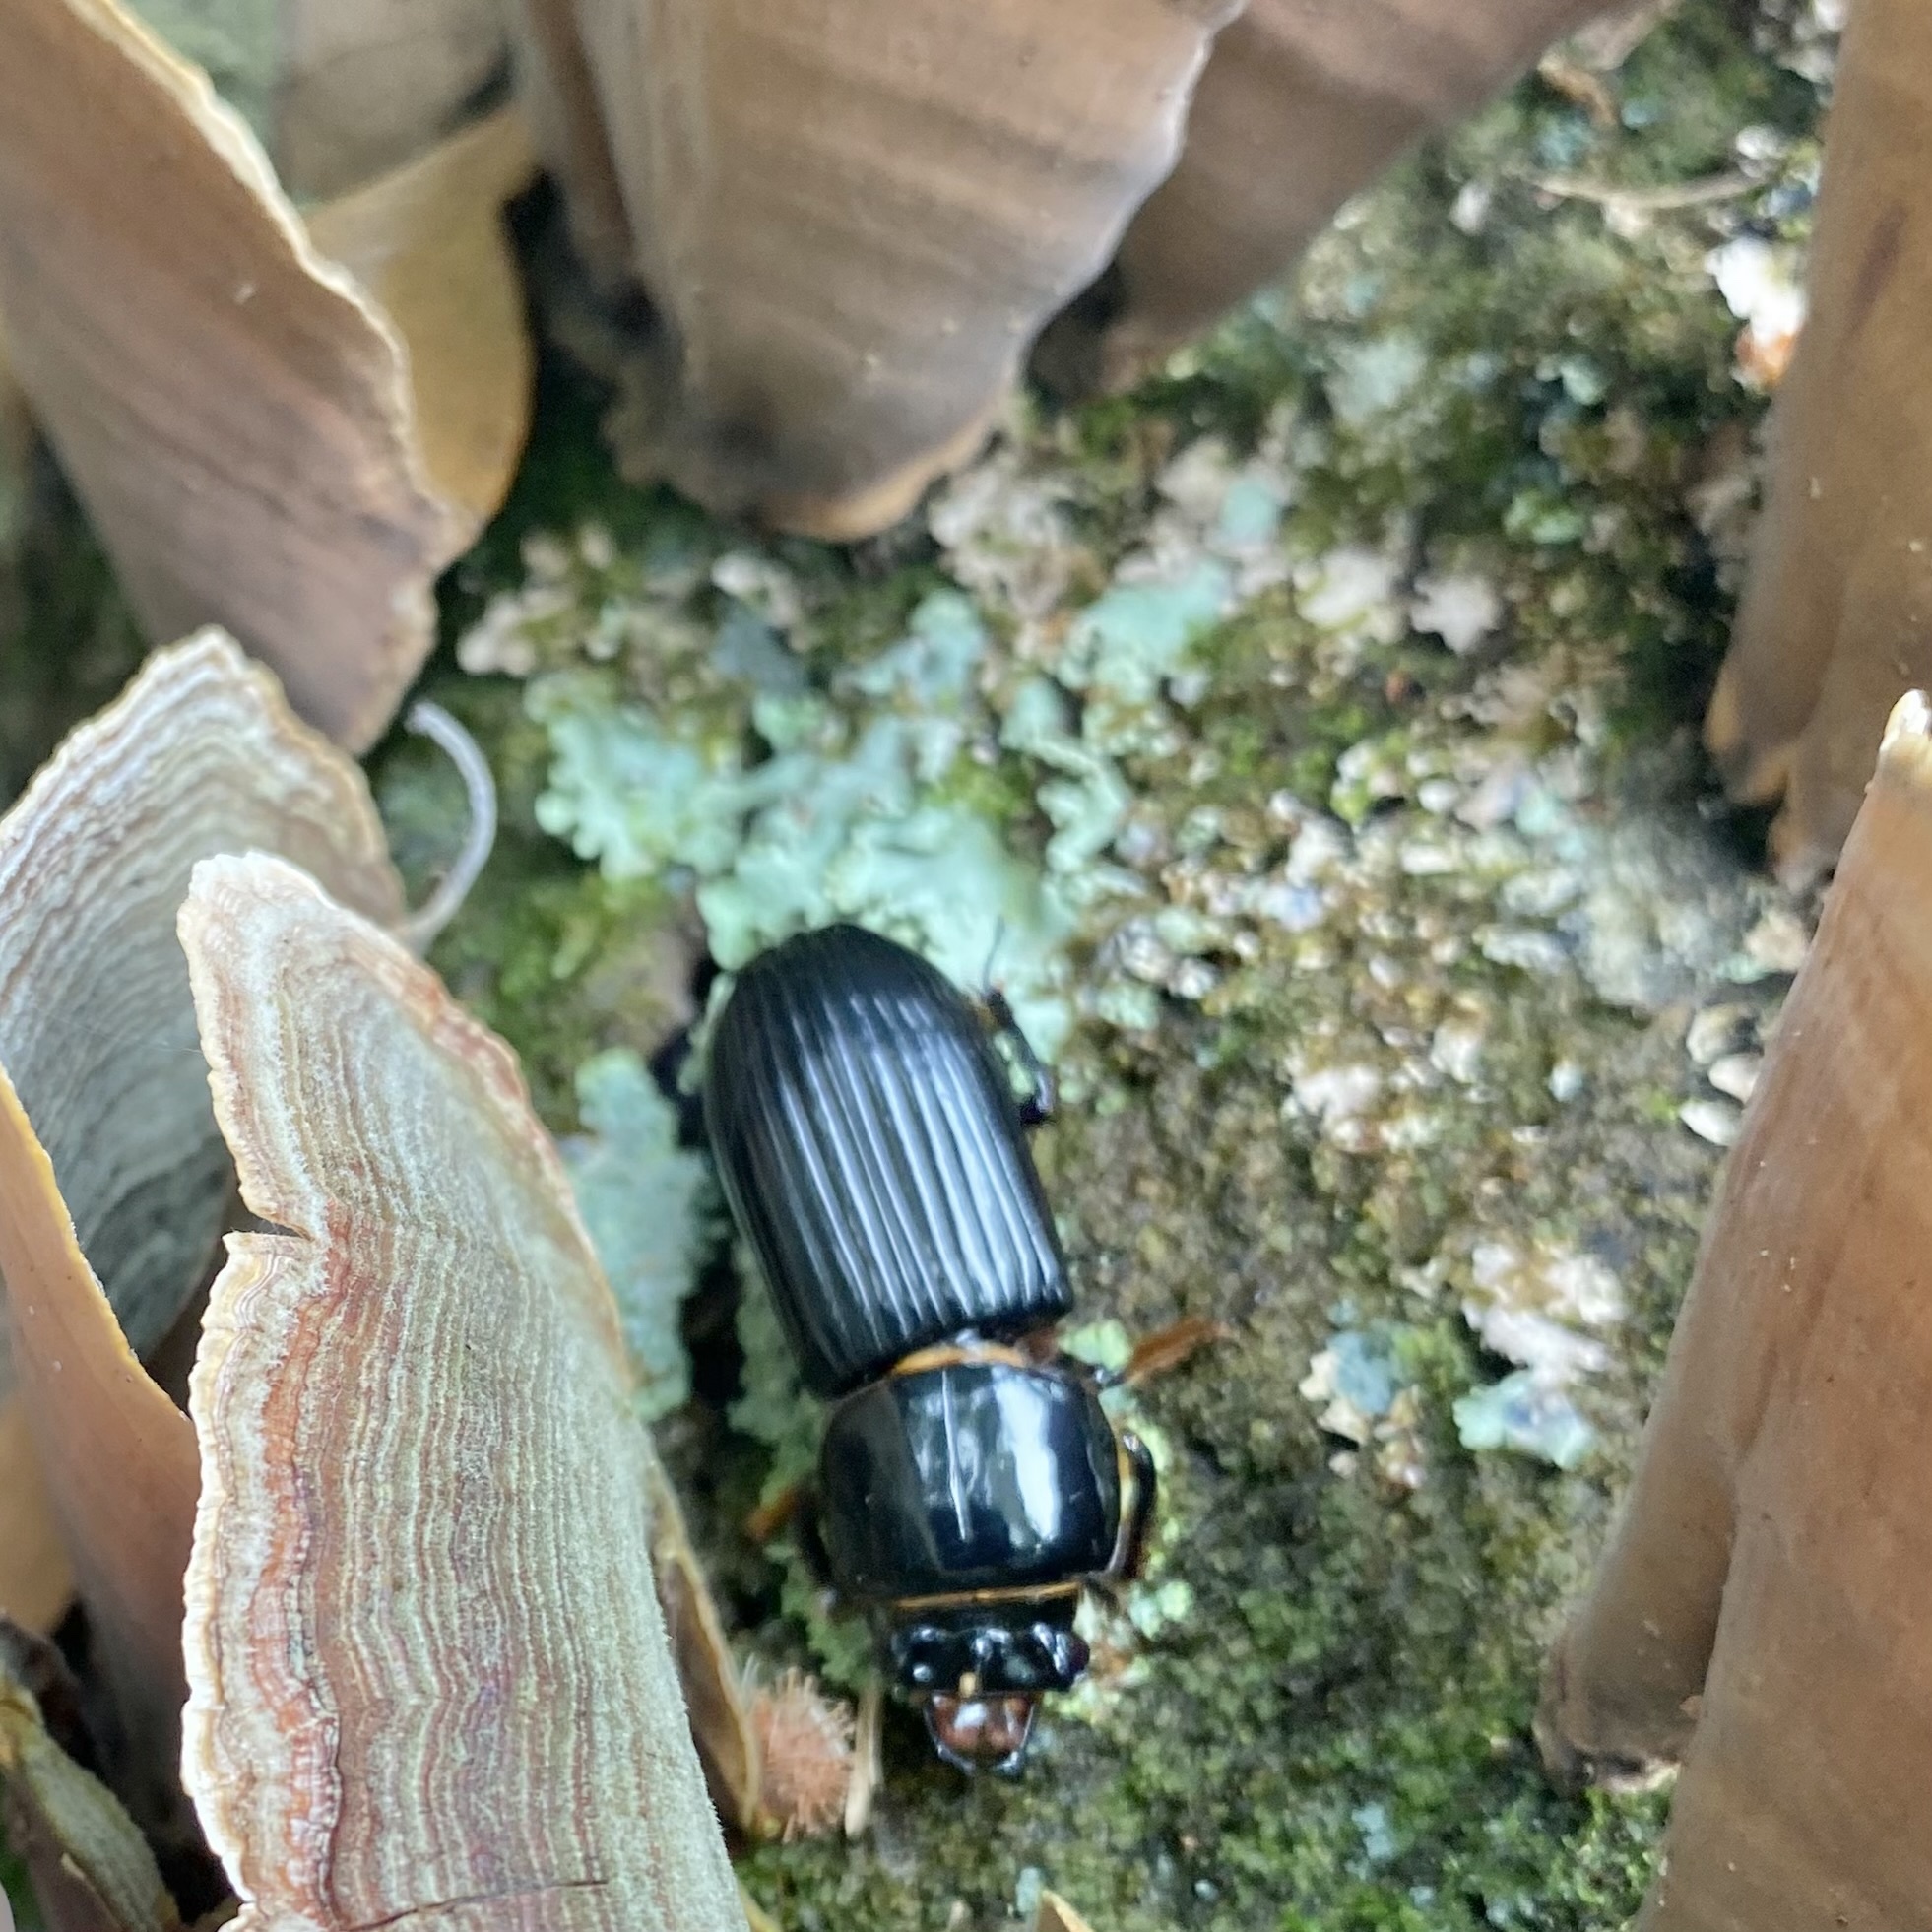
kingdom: Animalia
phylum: Arthropoda
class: Insecta
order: Coleoptera
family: Passalidae
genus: Odontotaenius
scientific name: Odontotaenius disjunctus
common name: Patent leather beetle
